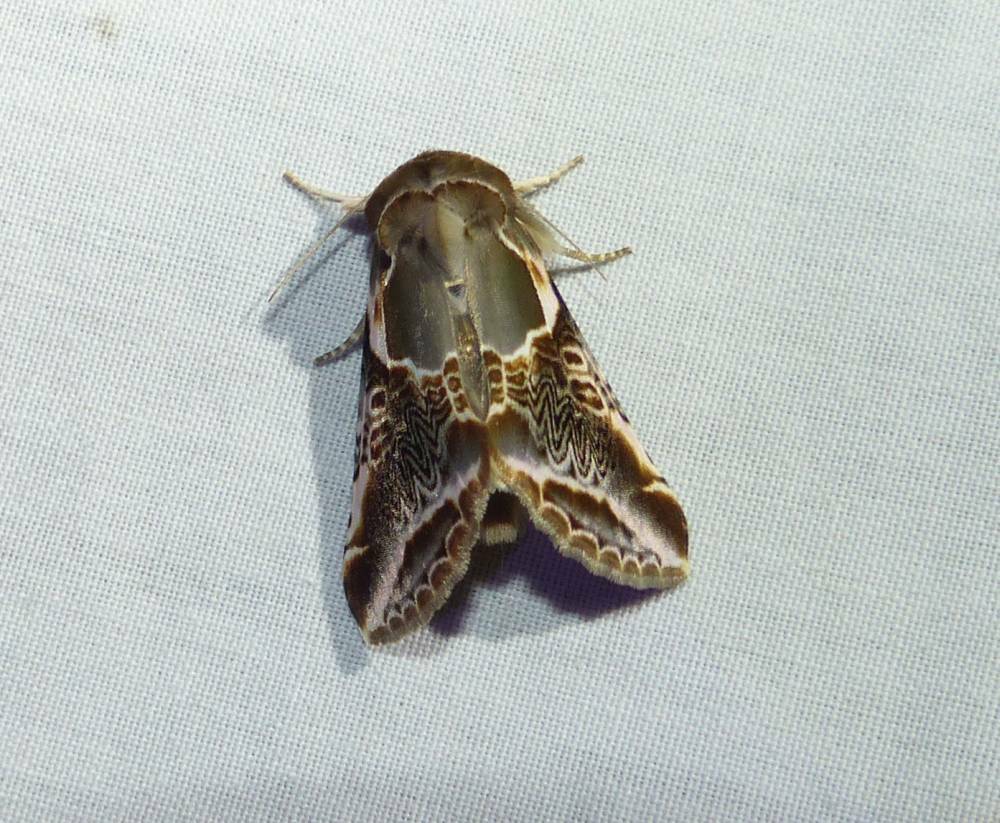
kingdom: Animalia
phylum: Arthropoda
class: Insecta
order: Lepidoptera
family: Drepanidae
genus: Habrosyne
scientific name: Habrosyne scripta
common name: Lettered habrosyne moth
